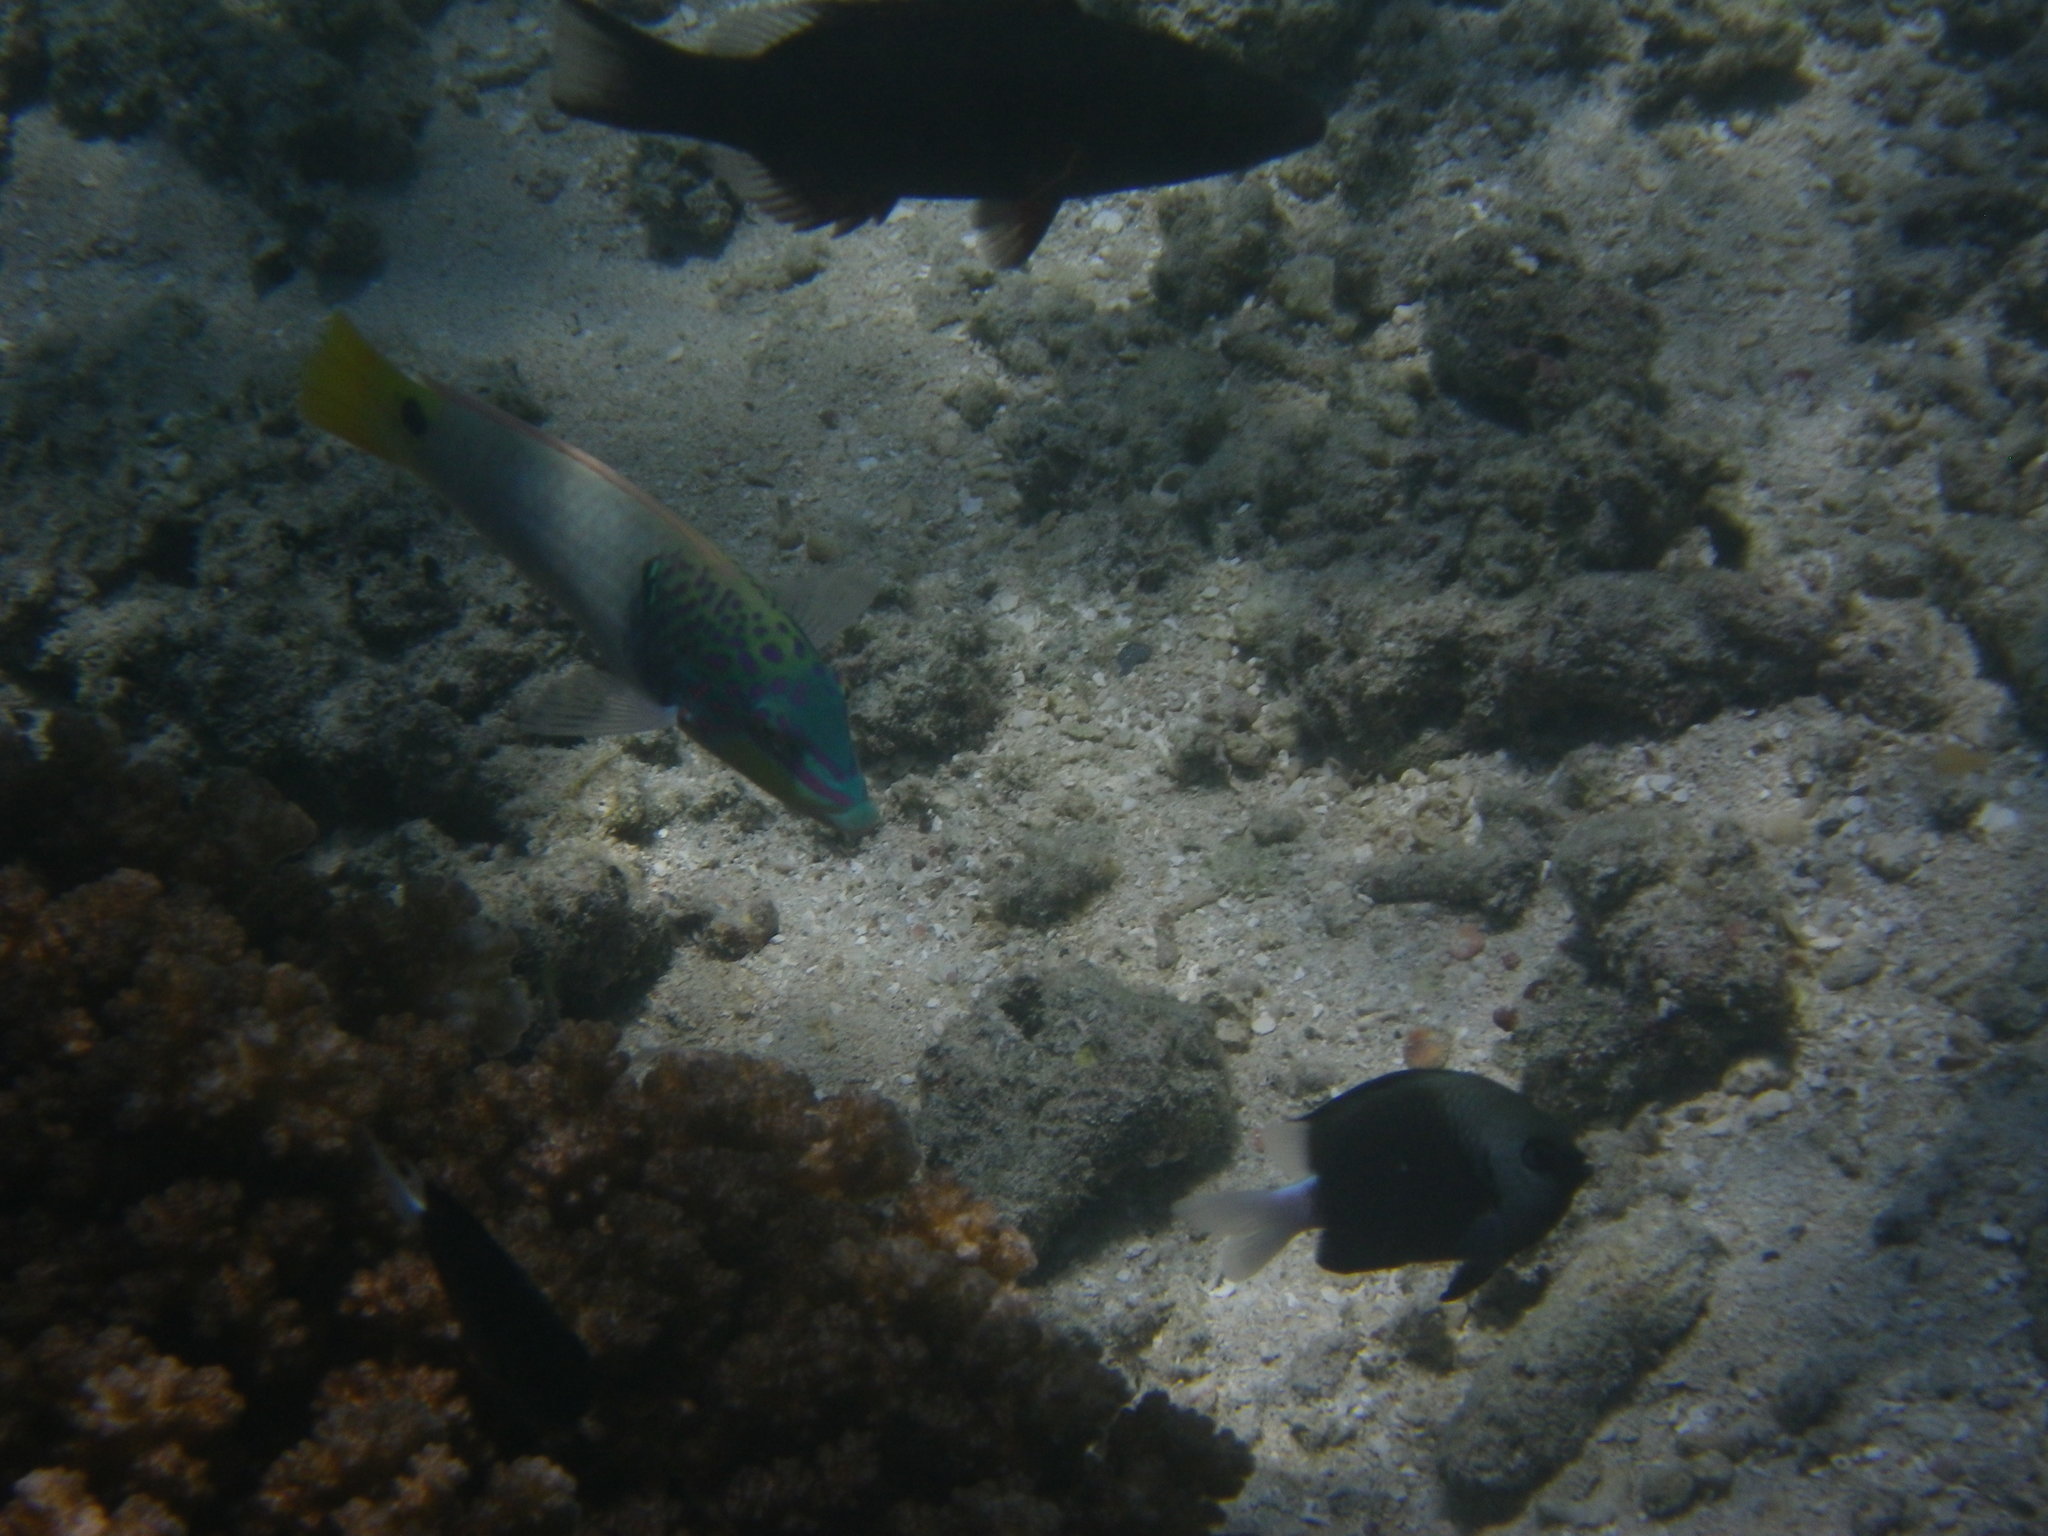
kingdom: Animalia
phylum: Chordata
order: Perciformes
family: Labridae
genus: Halichoeres
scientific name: Halichoeres trimaculatus
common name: Three-spot wrasse
